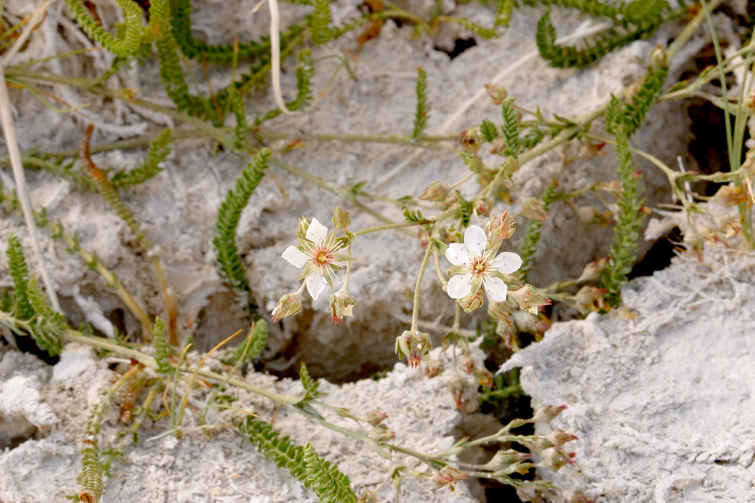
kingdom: Plantae
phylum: Tracheophyta
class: Magnoliopsida
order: Rosales
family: Rosaceae
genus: Potentilla
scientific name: Potentilla kingii
